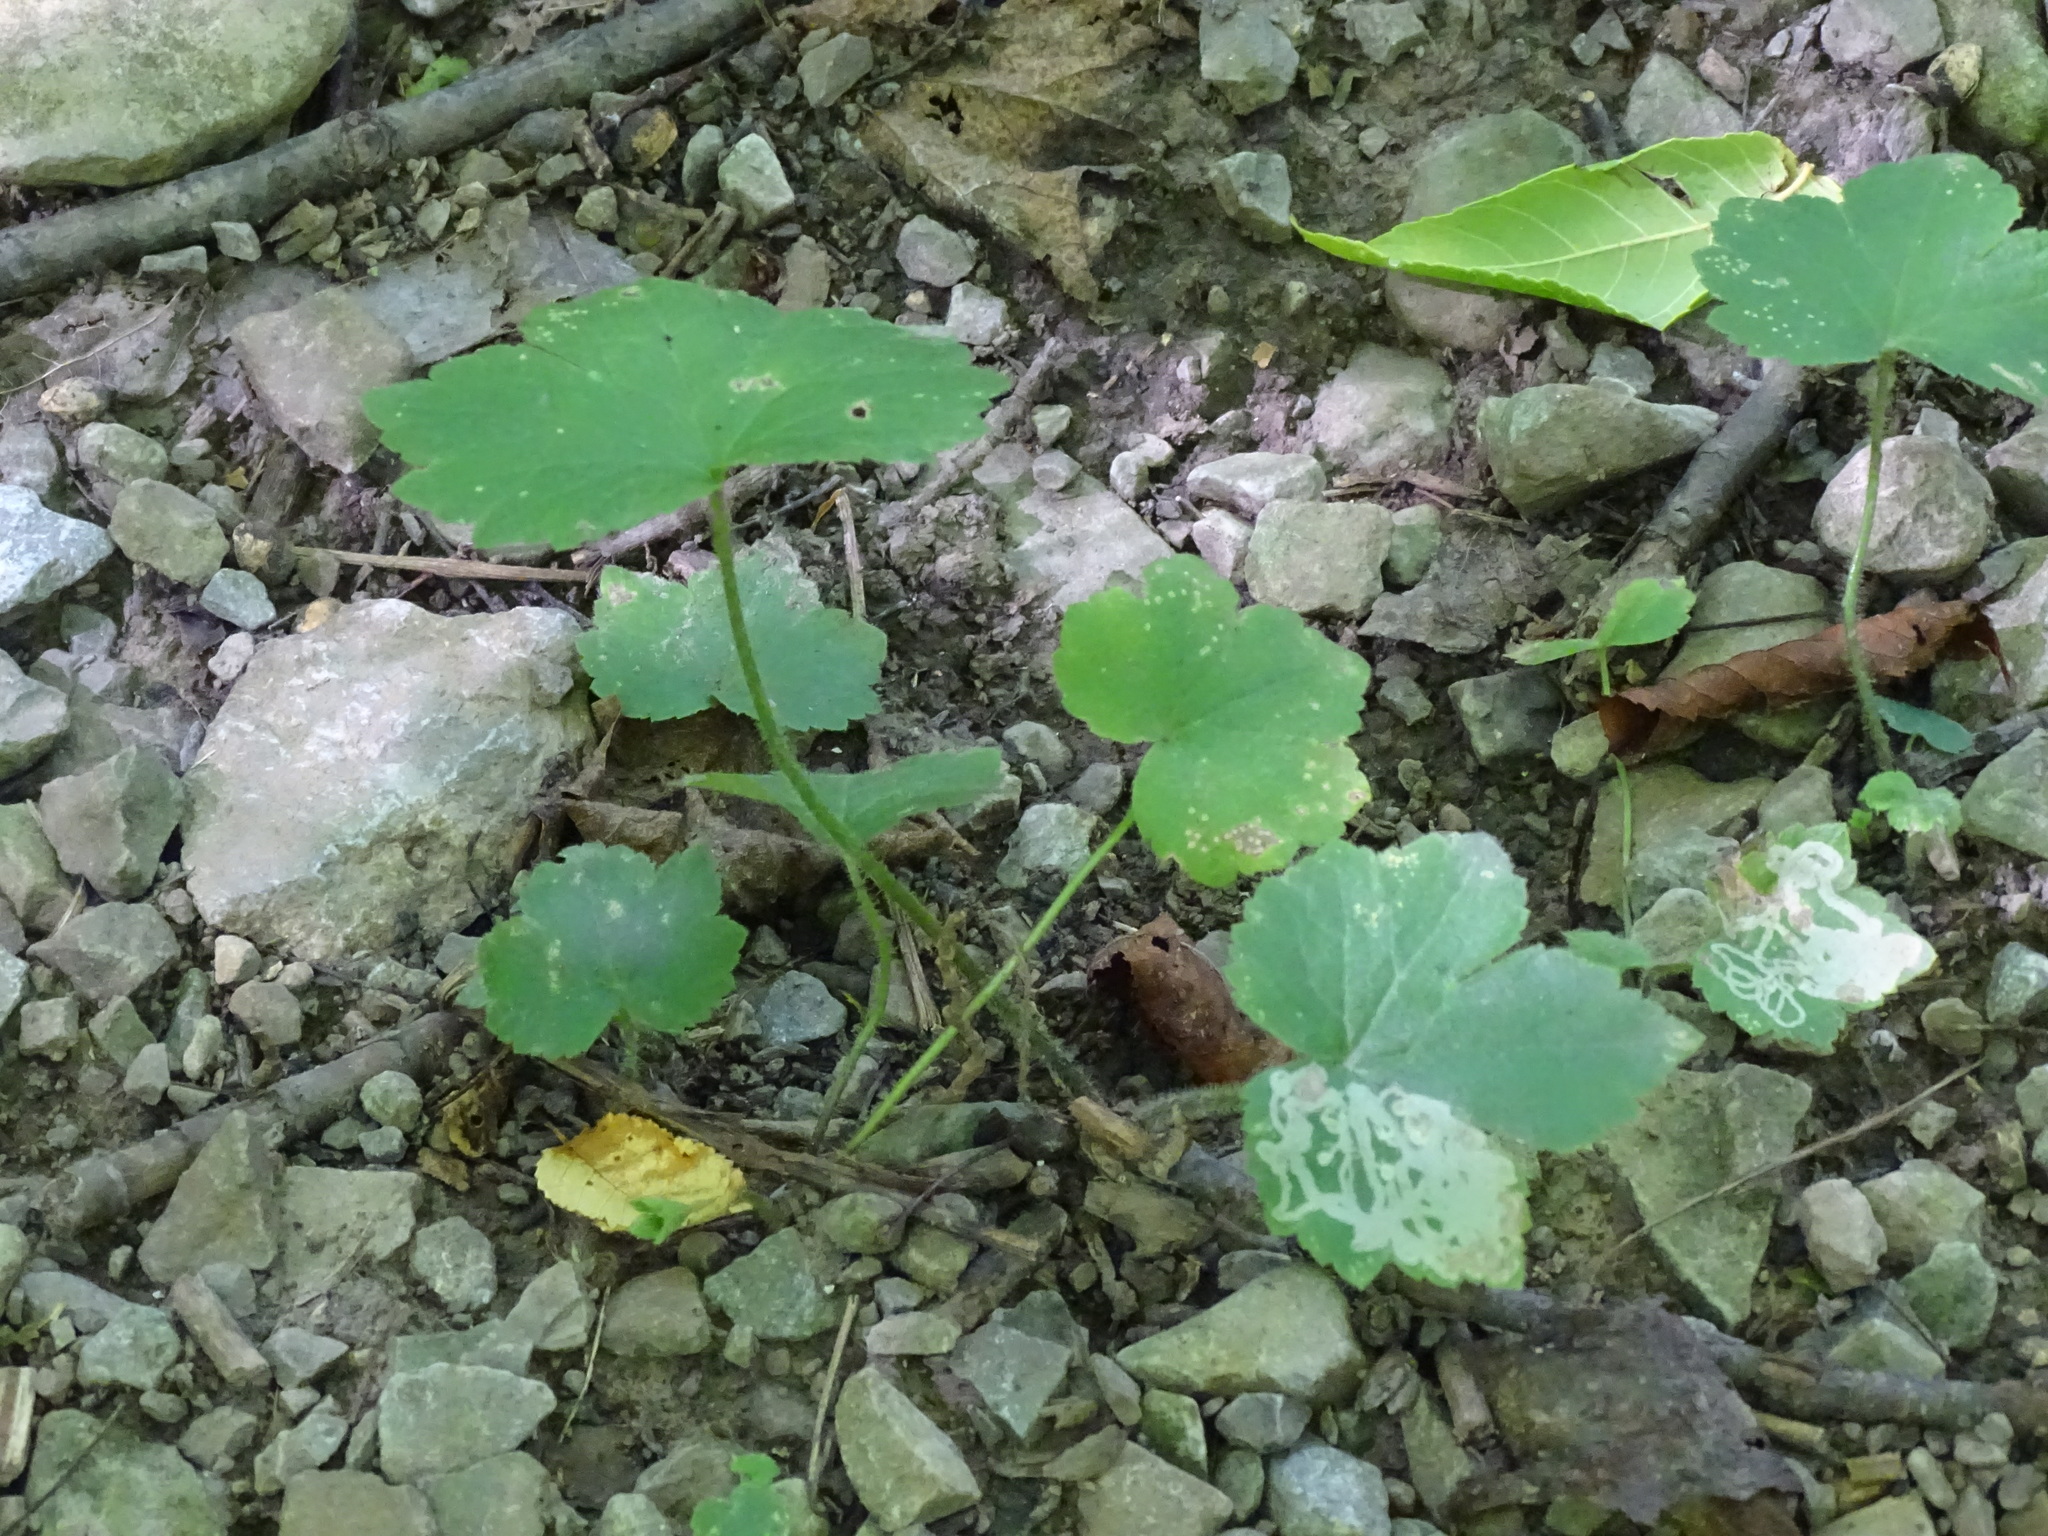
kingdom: Plantae
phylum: Tracheophyta
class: Magnoliopsida
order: Ranunculales
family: Ranunculaceae
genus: Ranunculus
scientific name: Ranunculus recurvatus
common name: Blisterwort
